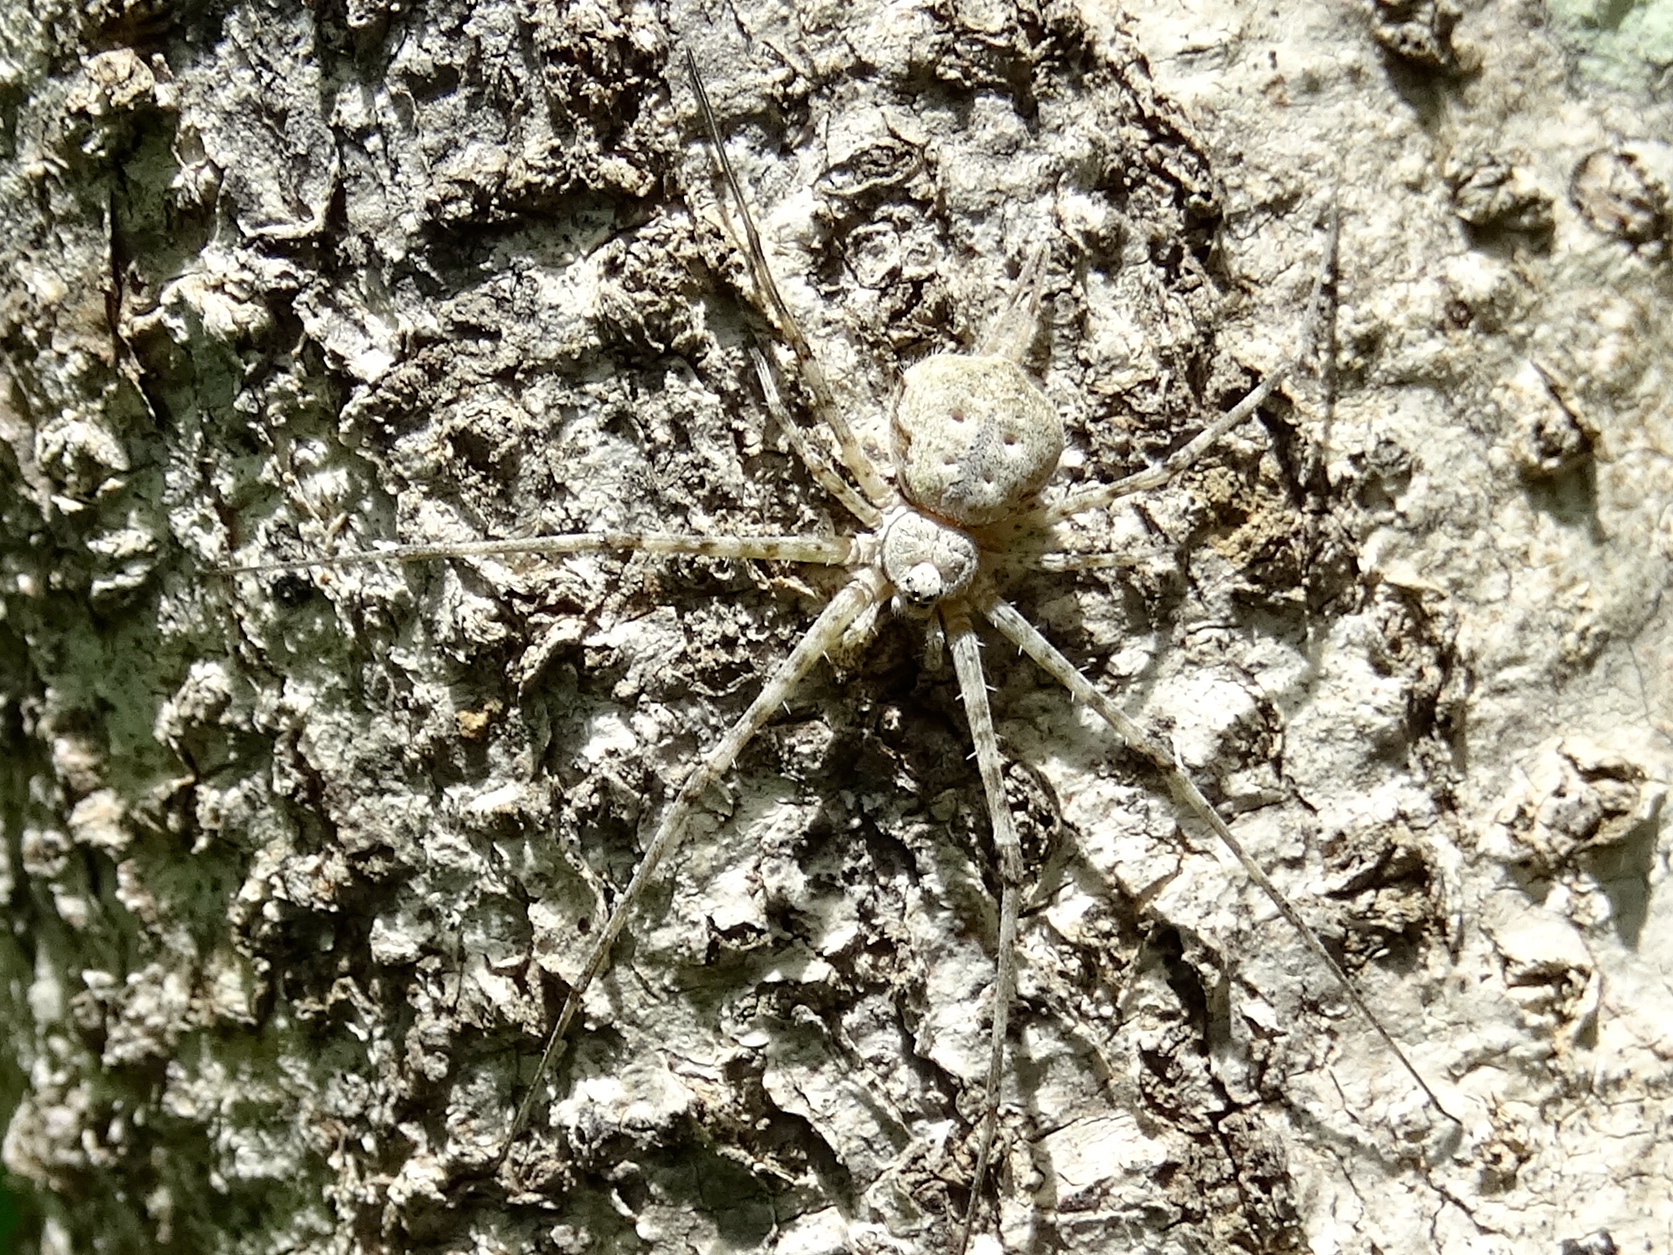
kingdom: Animalia
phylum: Arthropoda
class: Arachnida
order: Araneae
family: Hersiliidae
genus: Neotama
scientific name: Neotama
